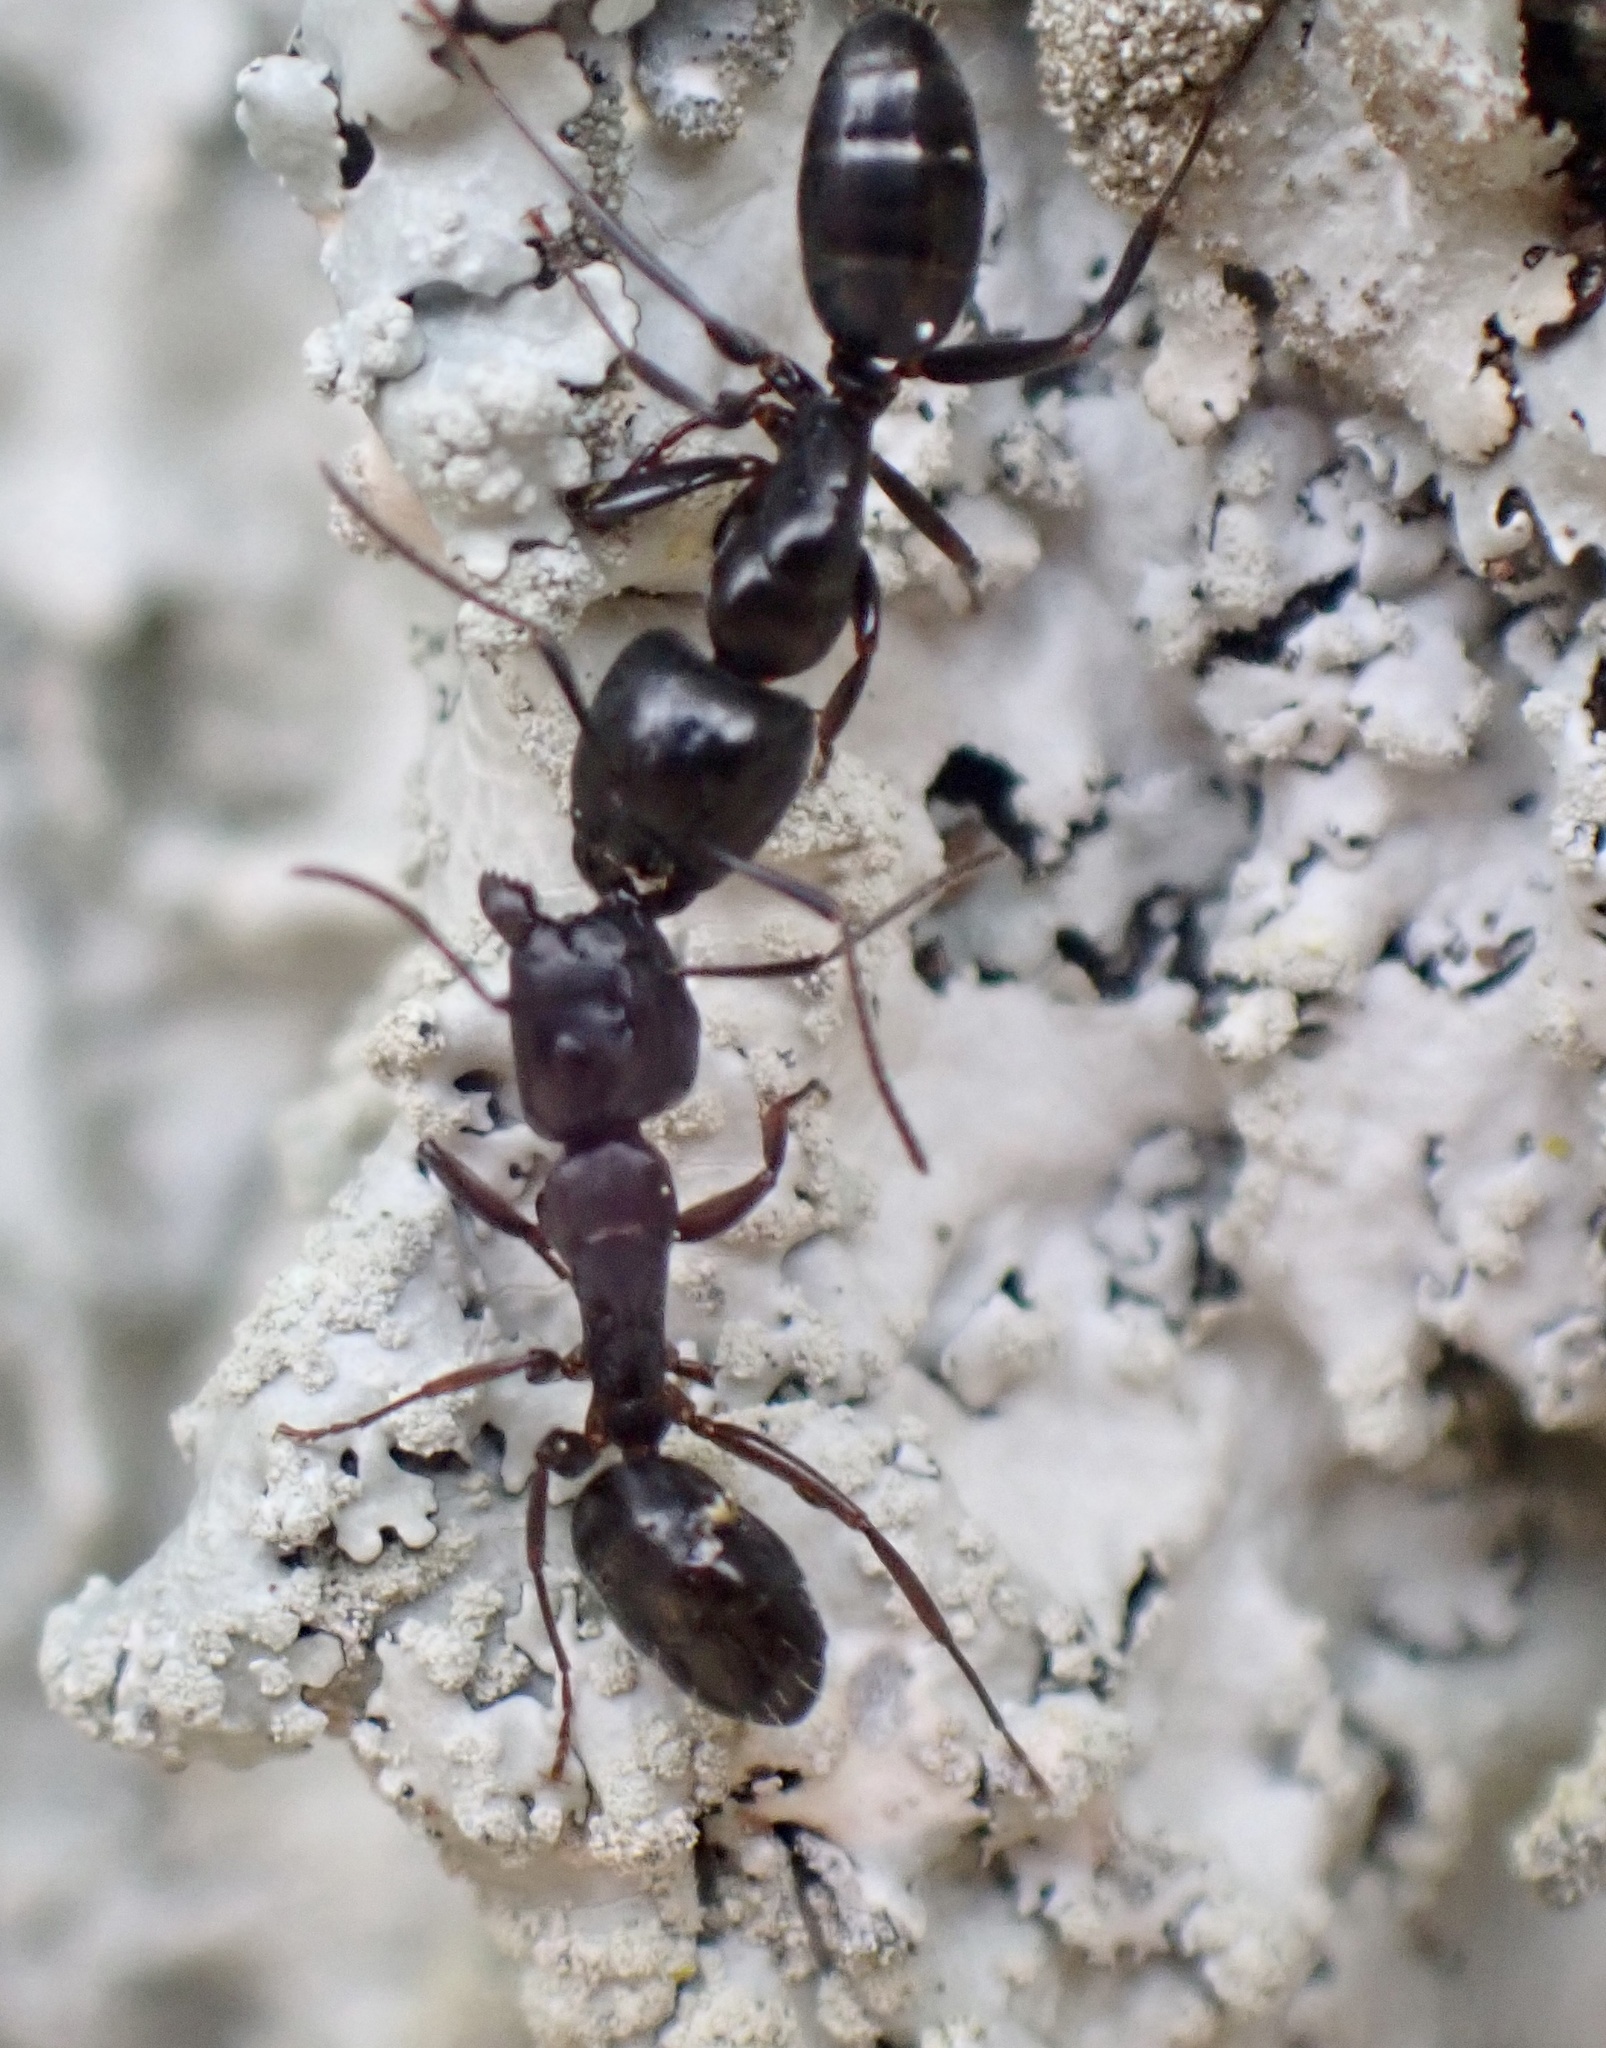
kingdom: Animalia
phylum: Arthropoda
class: Insecta
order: Hymenoptera
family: Formicidae
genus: Camponotus
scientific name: Camponotus nearcticus
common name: Smaller carpenter ant
